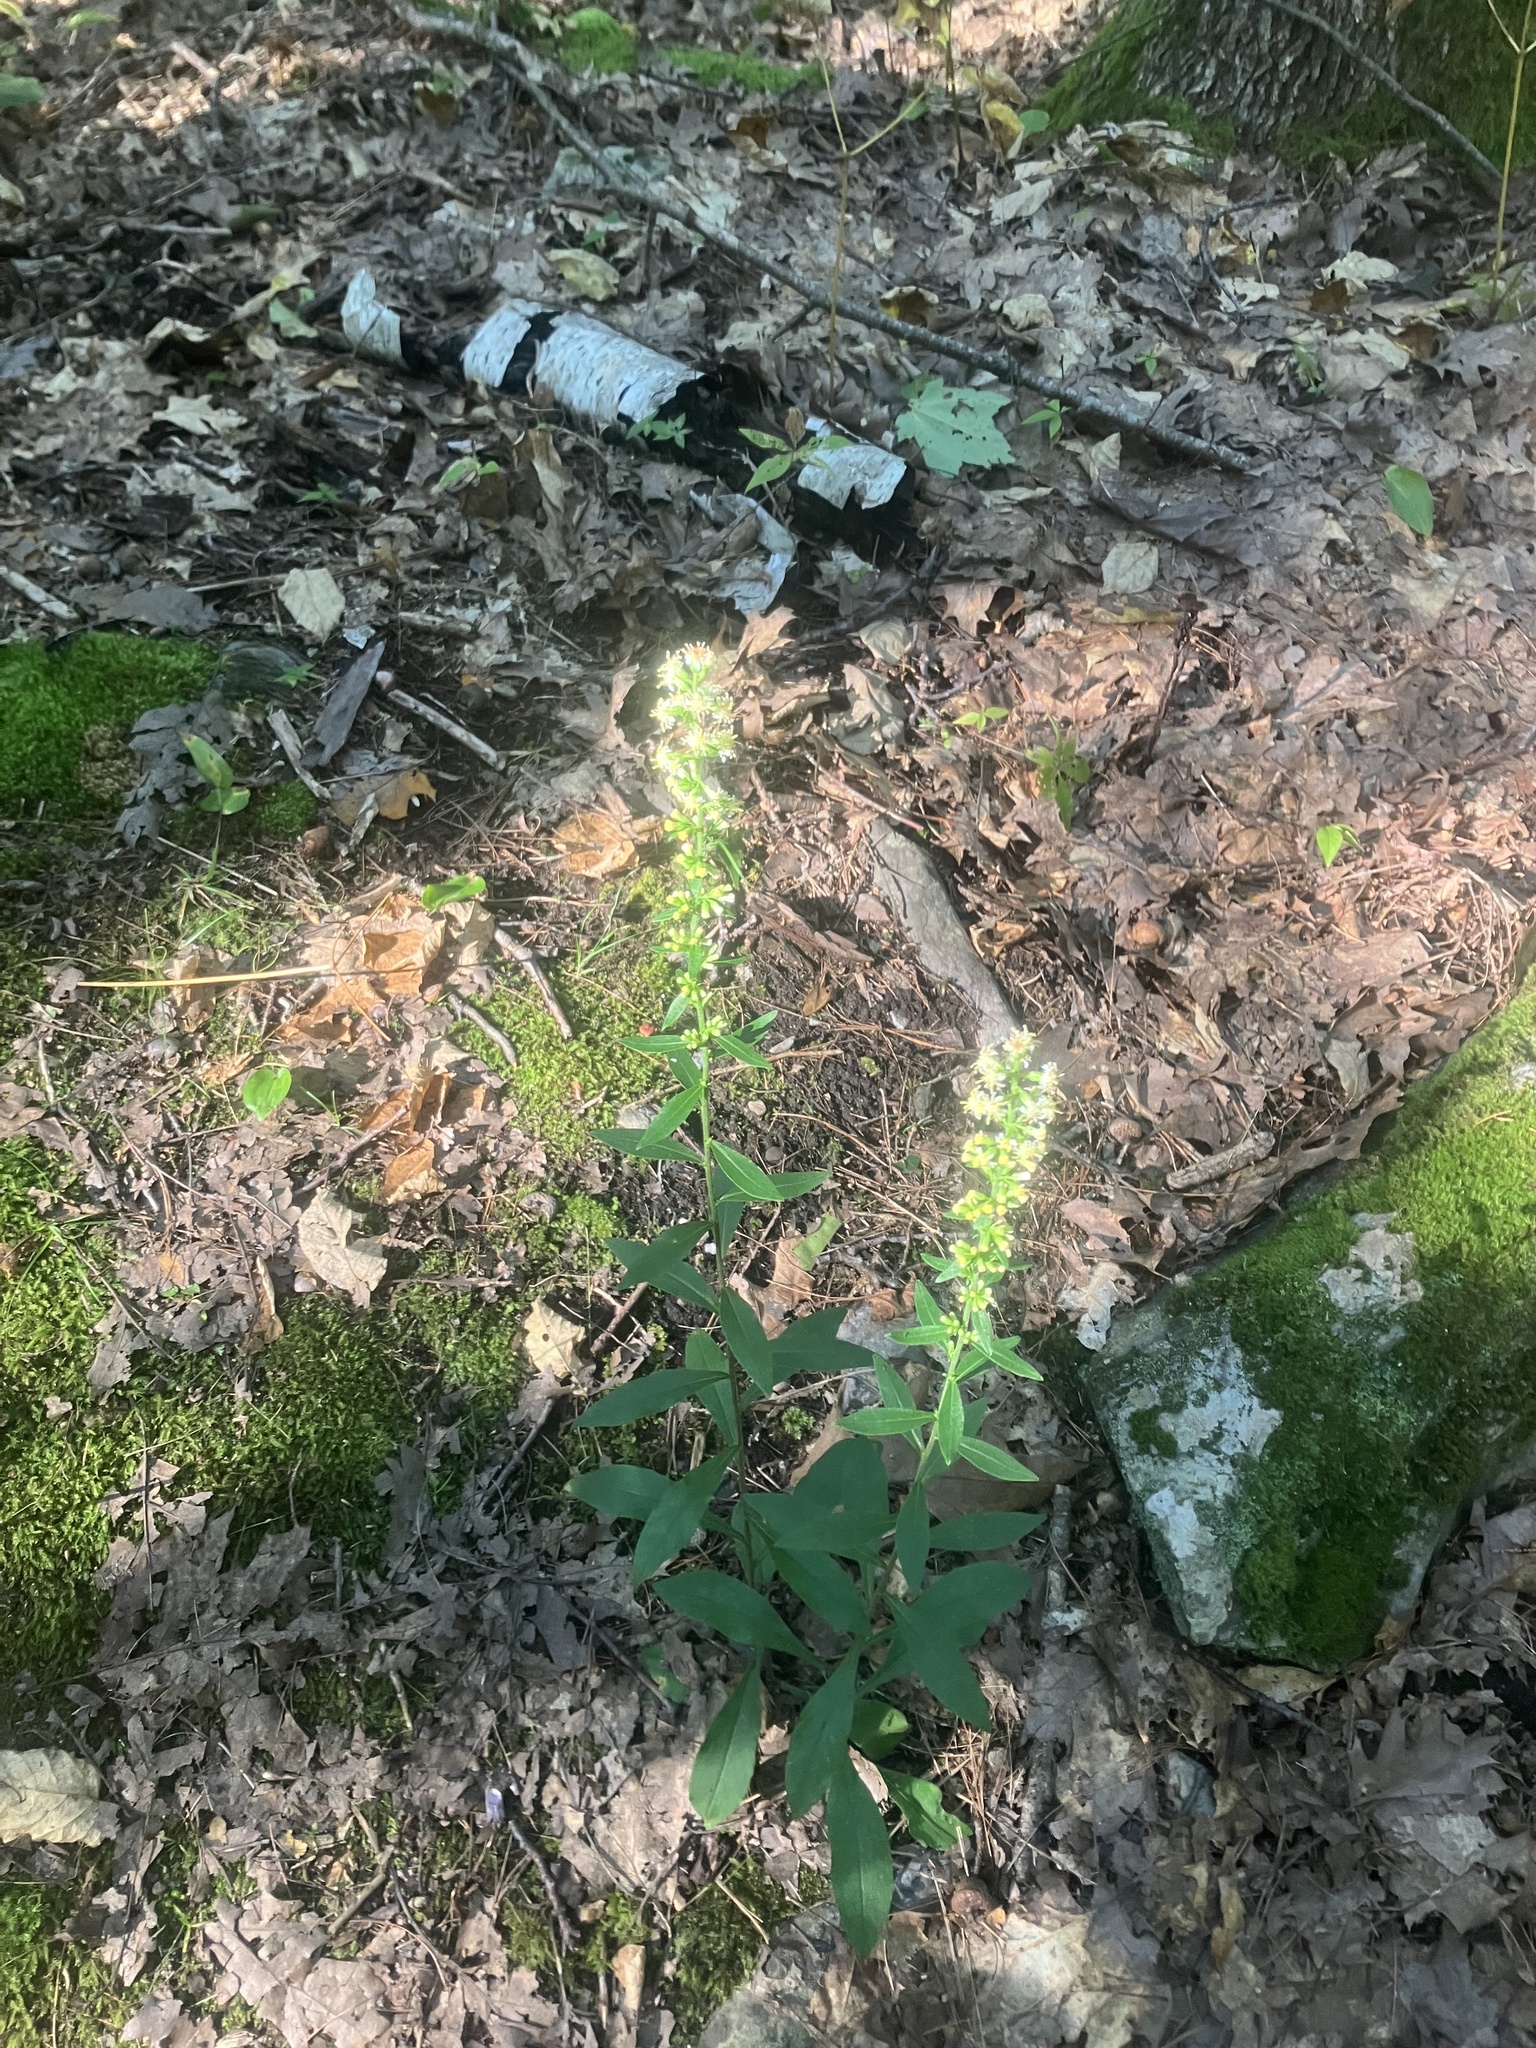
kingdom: Plantae
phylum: Tracheophyta
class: Magnoliopsida
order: Asterales
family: Asteraceae
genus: Solidago
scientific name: Solidago bicolor
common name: Silverrod
